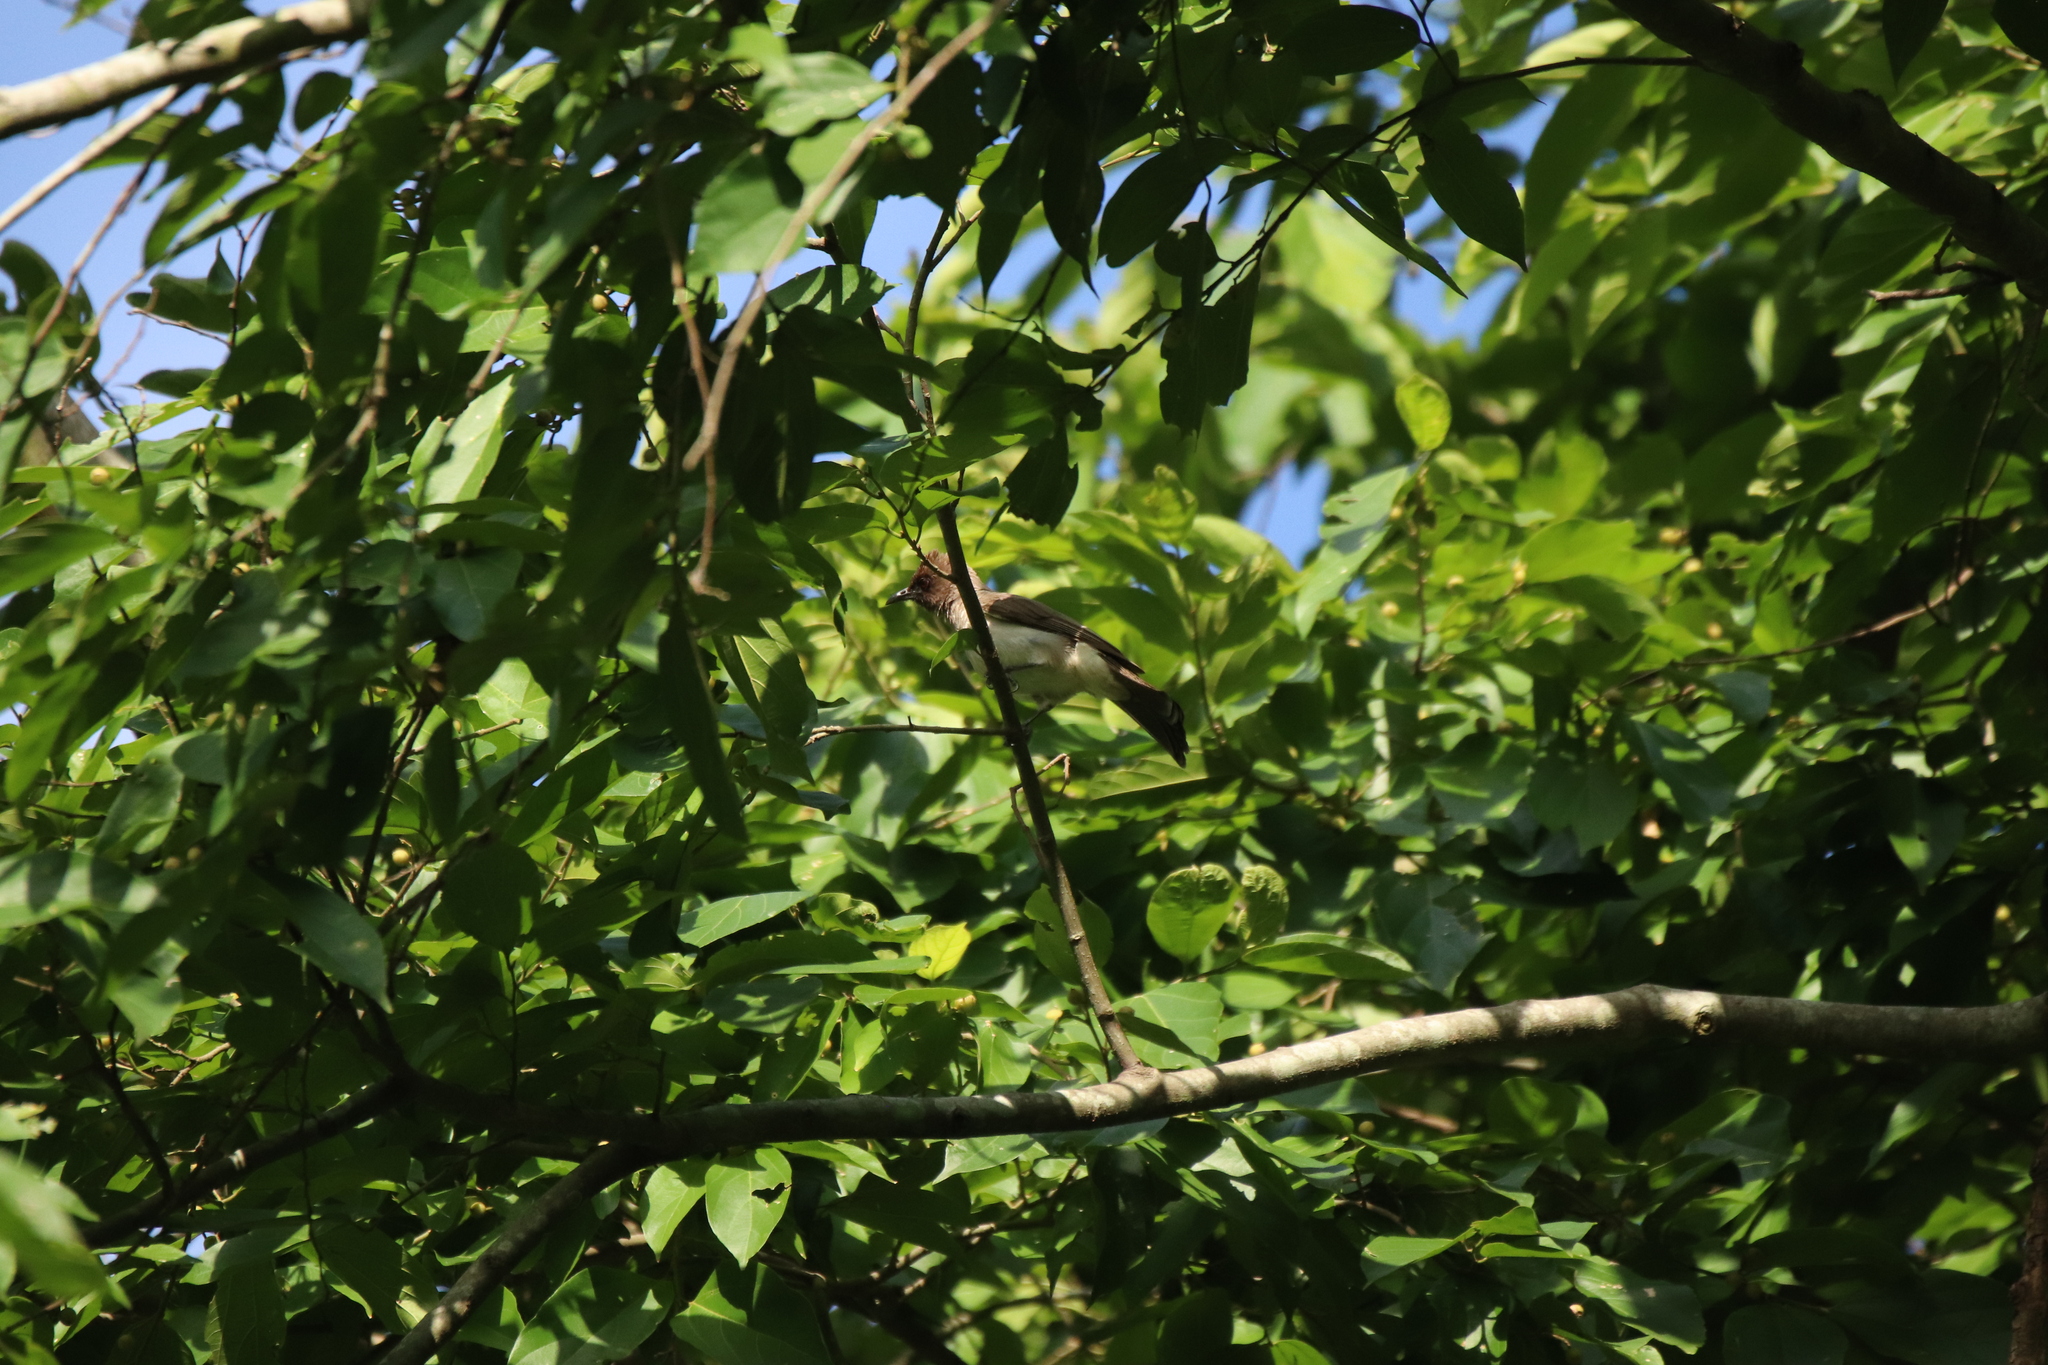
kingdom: Animalia
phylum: Chordata
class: Aves
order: Passeriformes
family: Pycnonotidae
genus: Pycnonotus
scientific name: Pycnonotus barbatus
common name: Common bulbul
